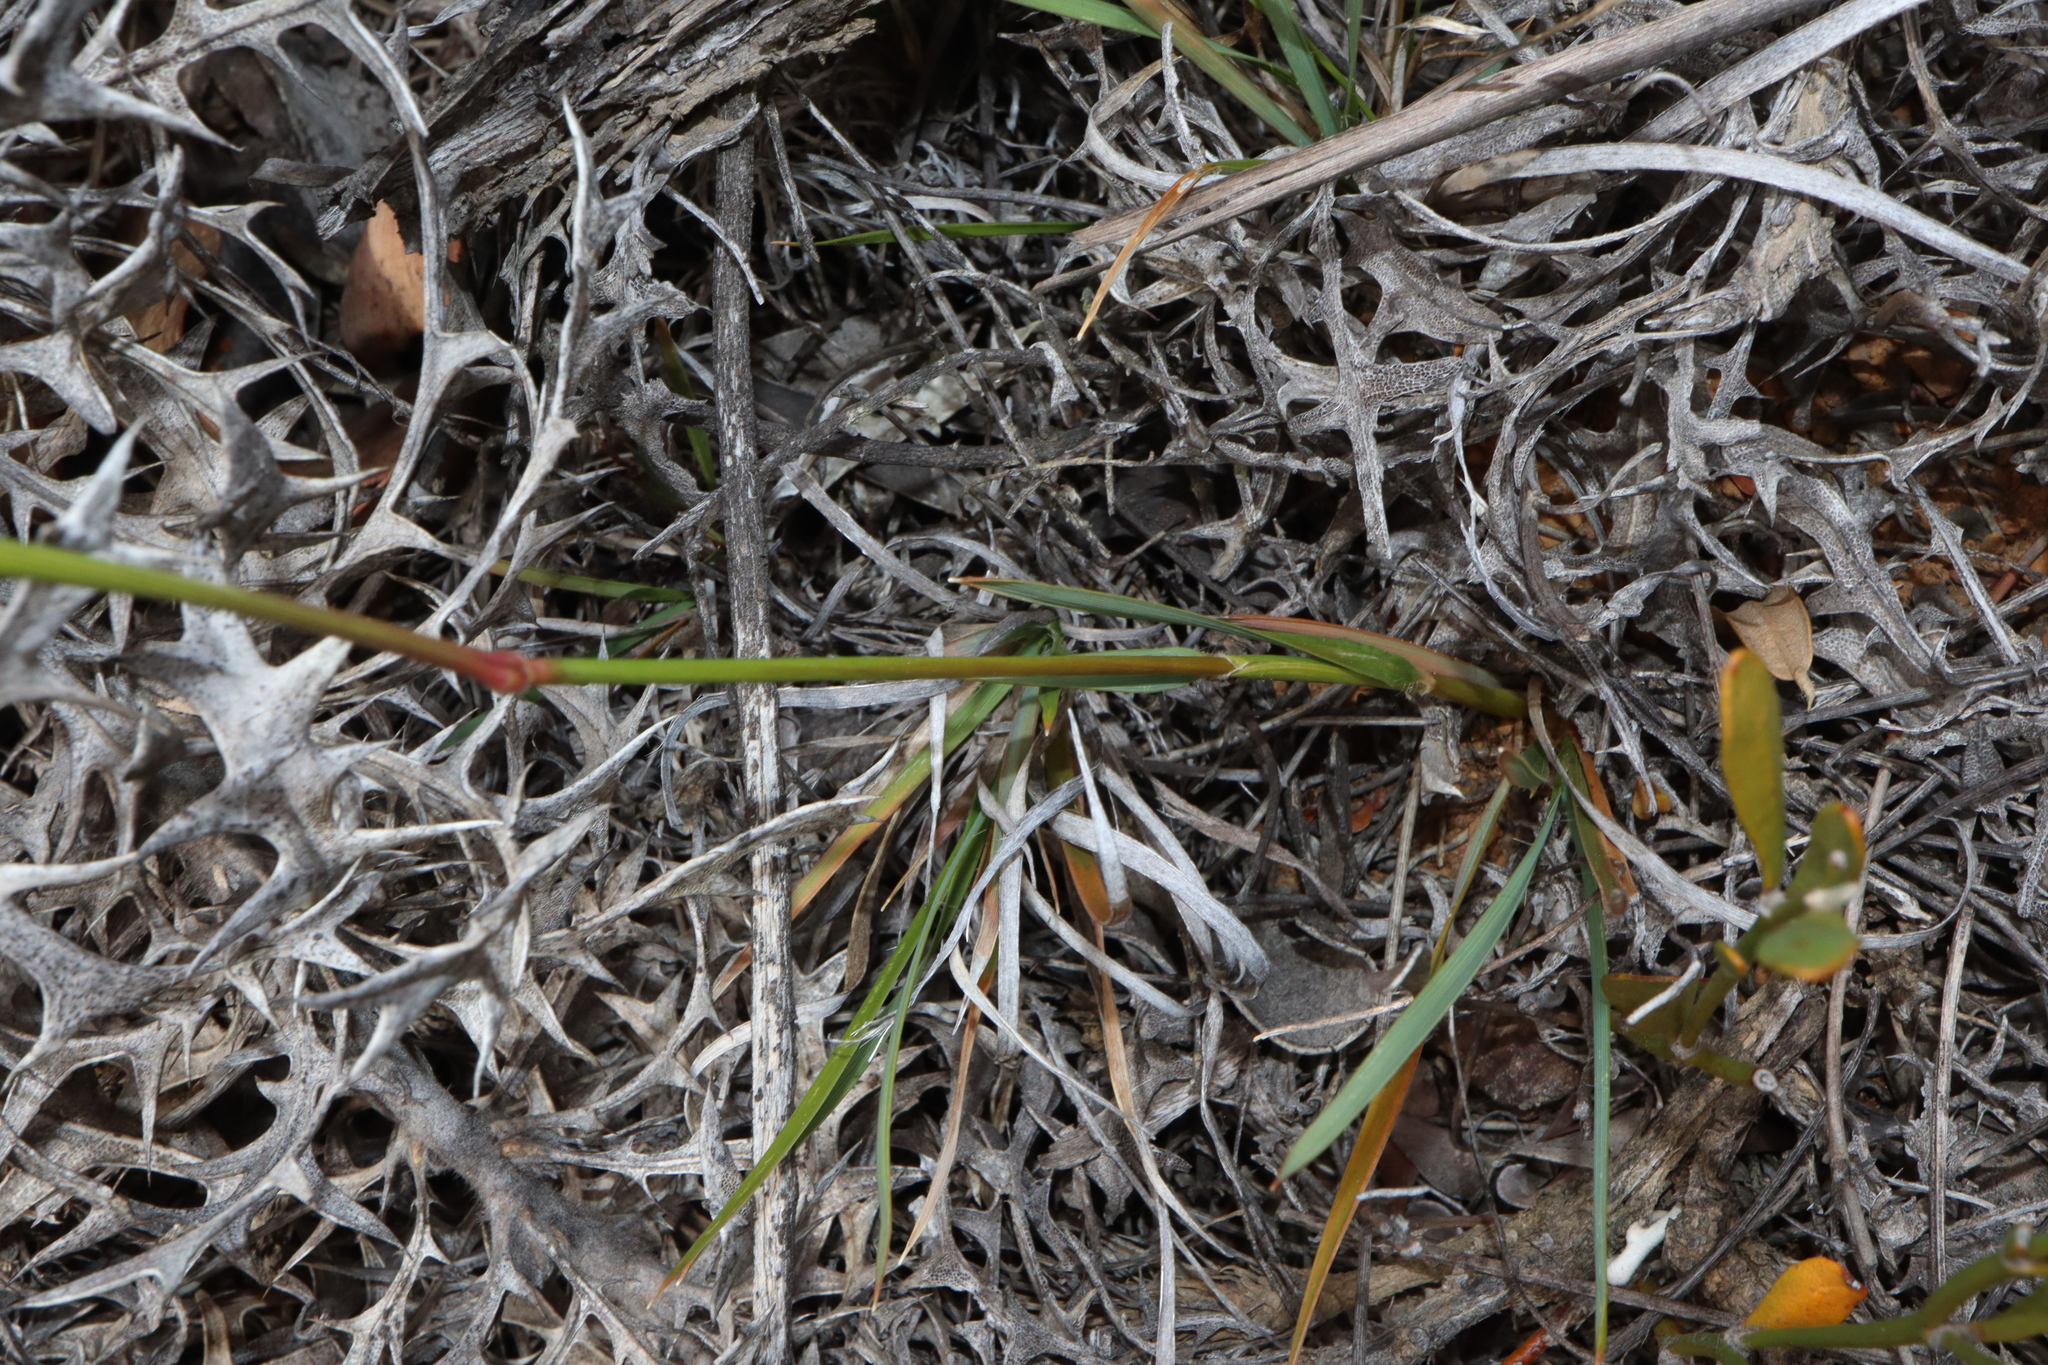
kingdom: Plantae
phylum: Tracheophyta
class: Liliopsida
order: Poales
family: Poaceae
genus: Neurachne
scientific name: Neurachne alopecuroidea
